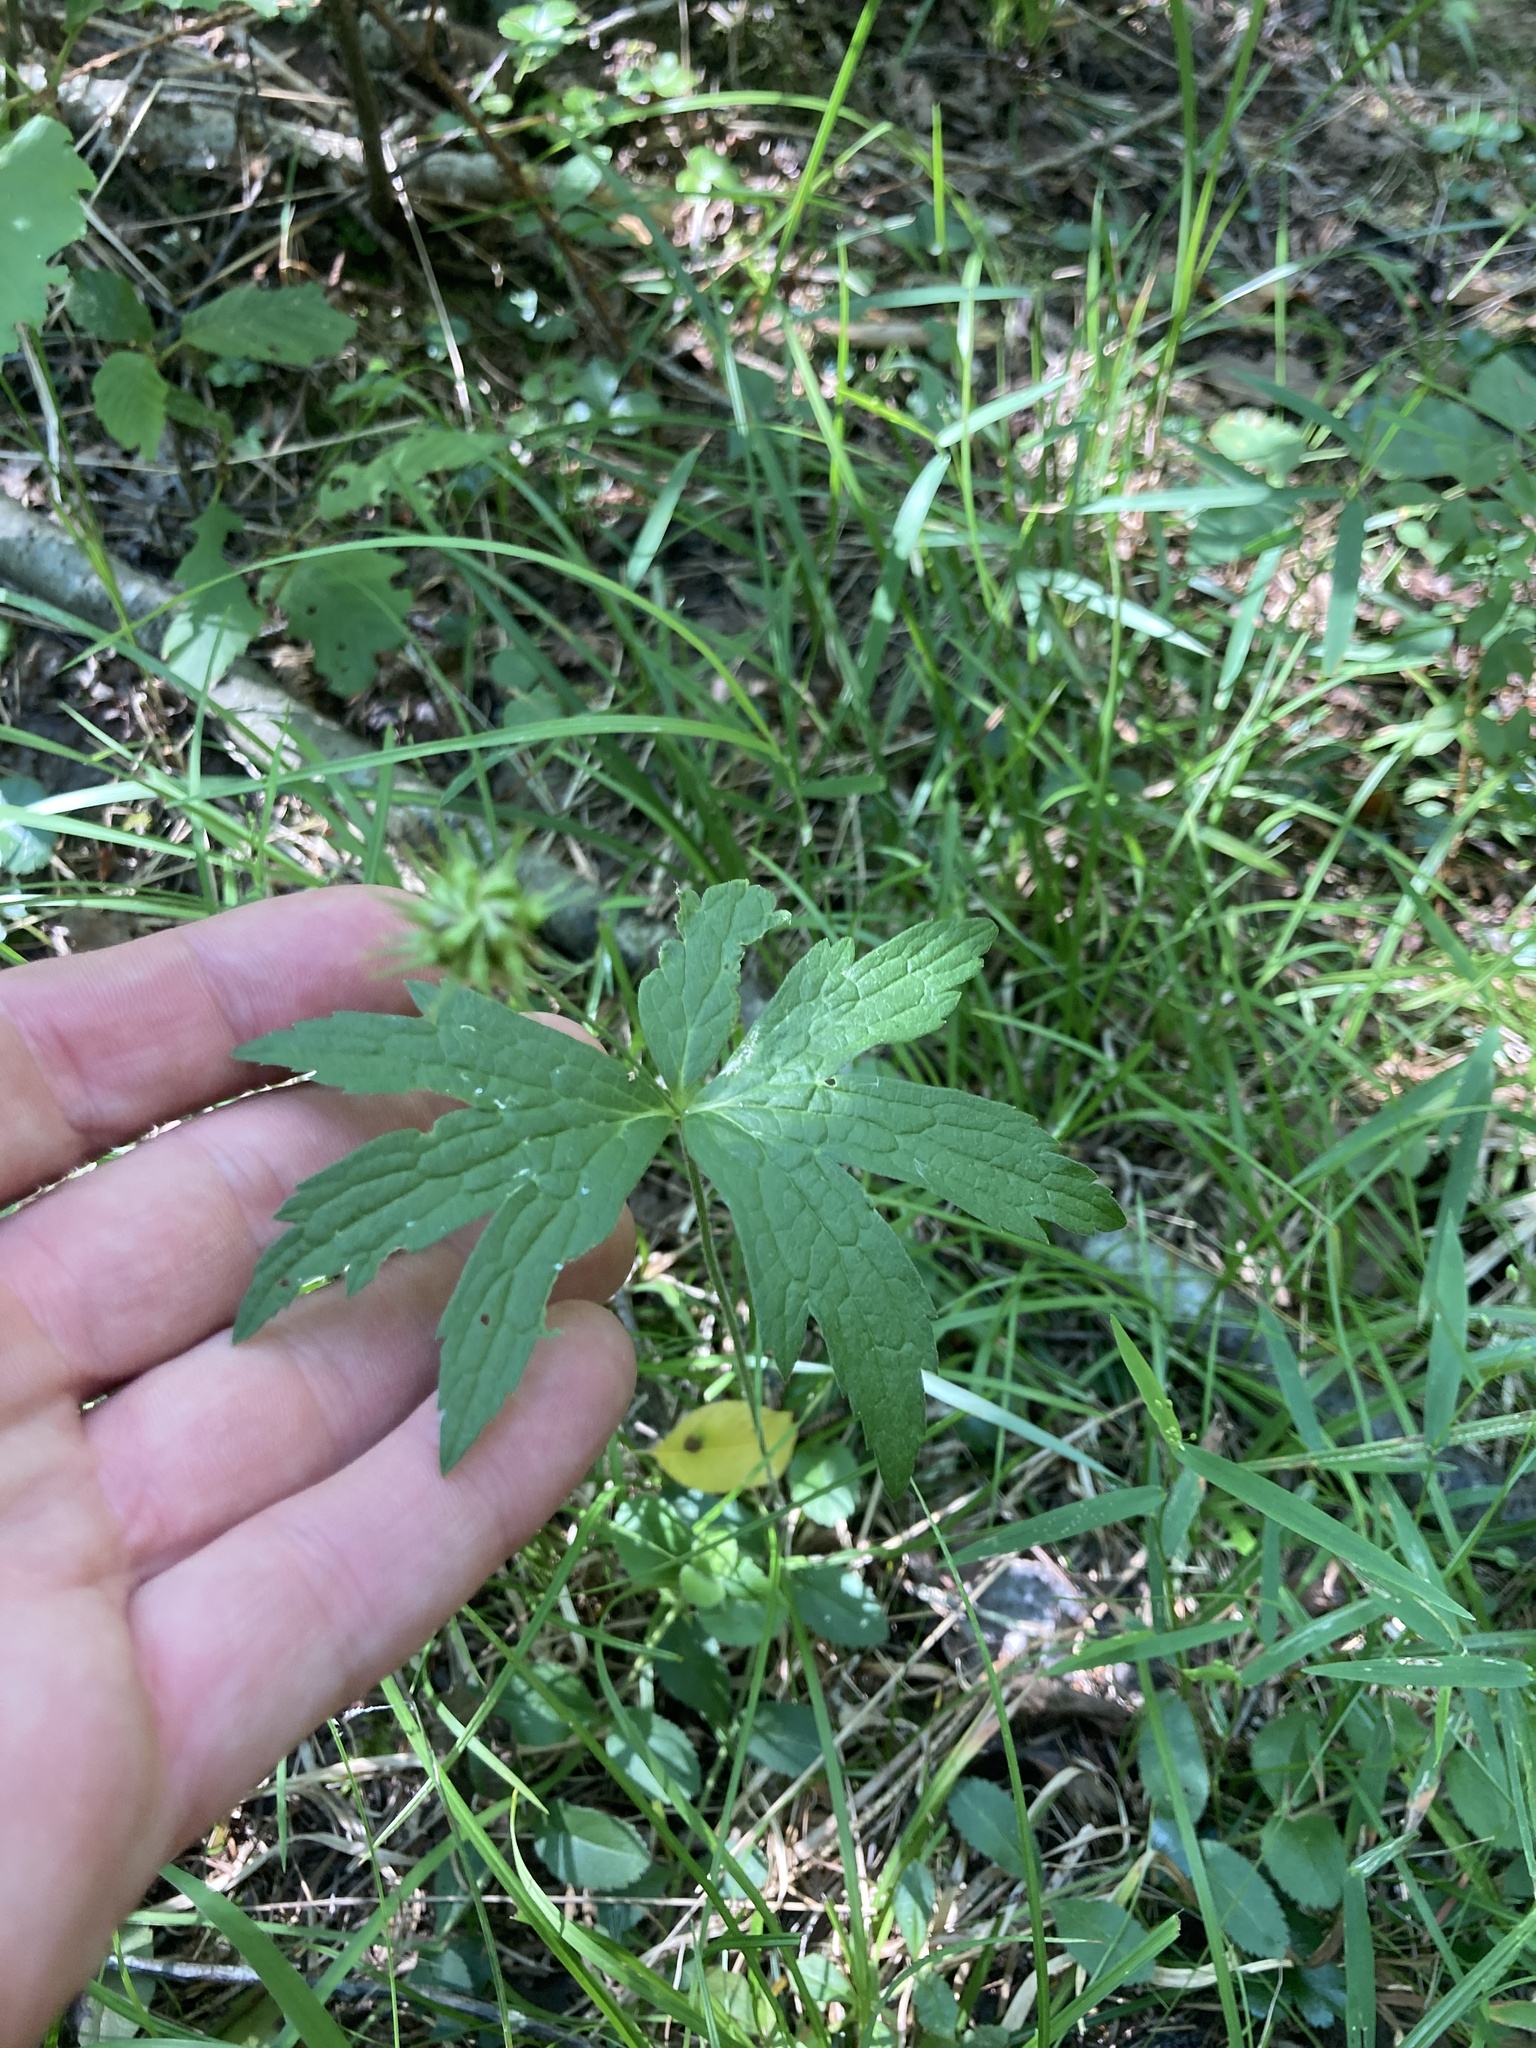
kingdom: Plantae
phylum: Tracheophyta
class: Magnoliopsida
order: Ranunculales
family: Ranunculaceae
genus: Anemonastrum
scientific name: Anemonastrum canadense
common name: Canada anemone
